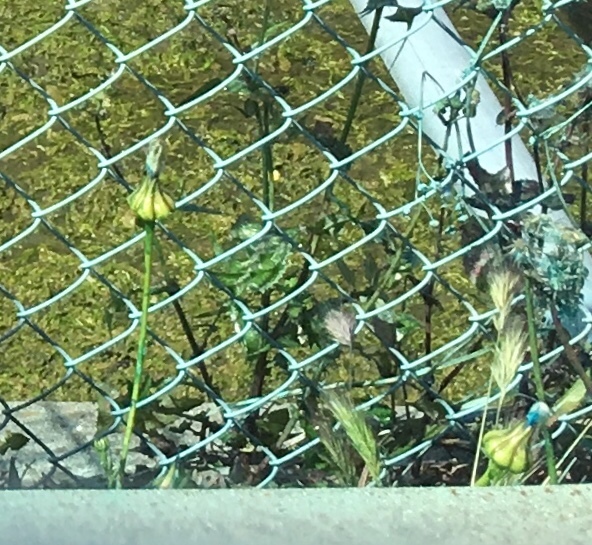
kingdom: Plantae
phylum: Tracheophyta
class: Magnoliopsida
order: Asterales
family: Asteraceae
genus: Urospermum
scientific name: Urospermum picroides
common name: False hawkbit
